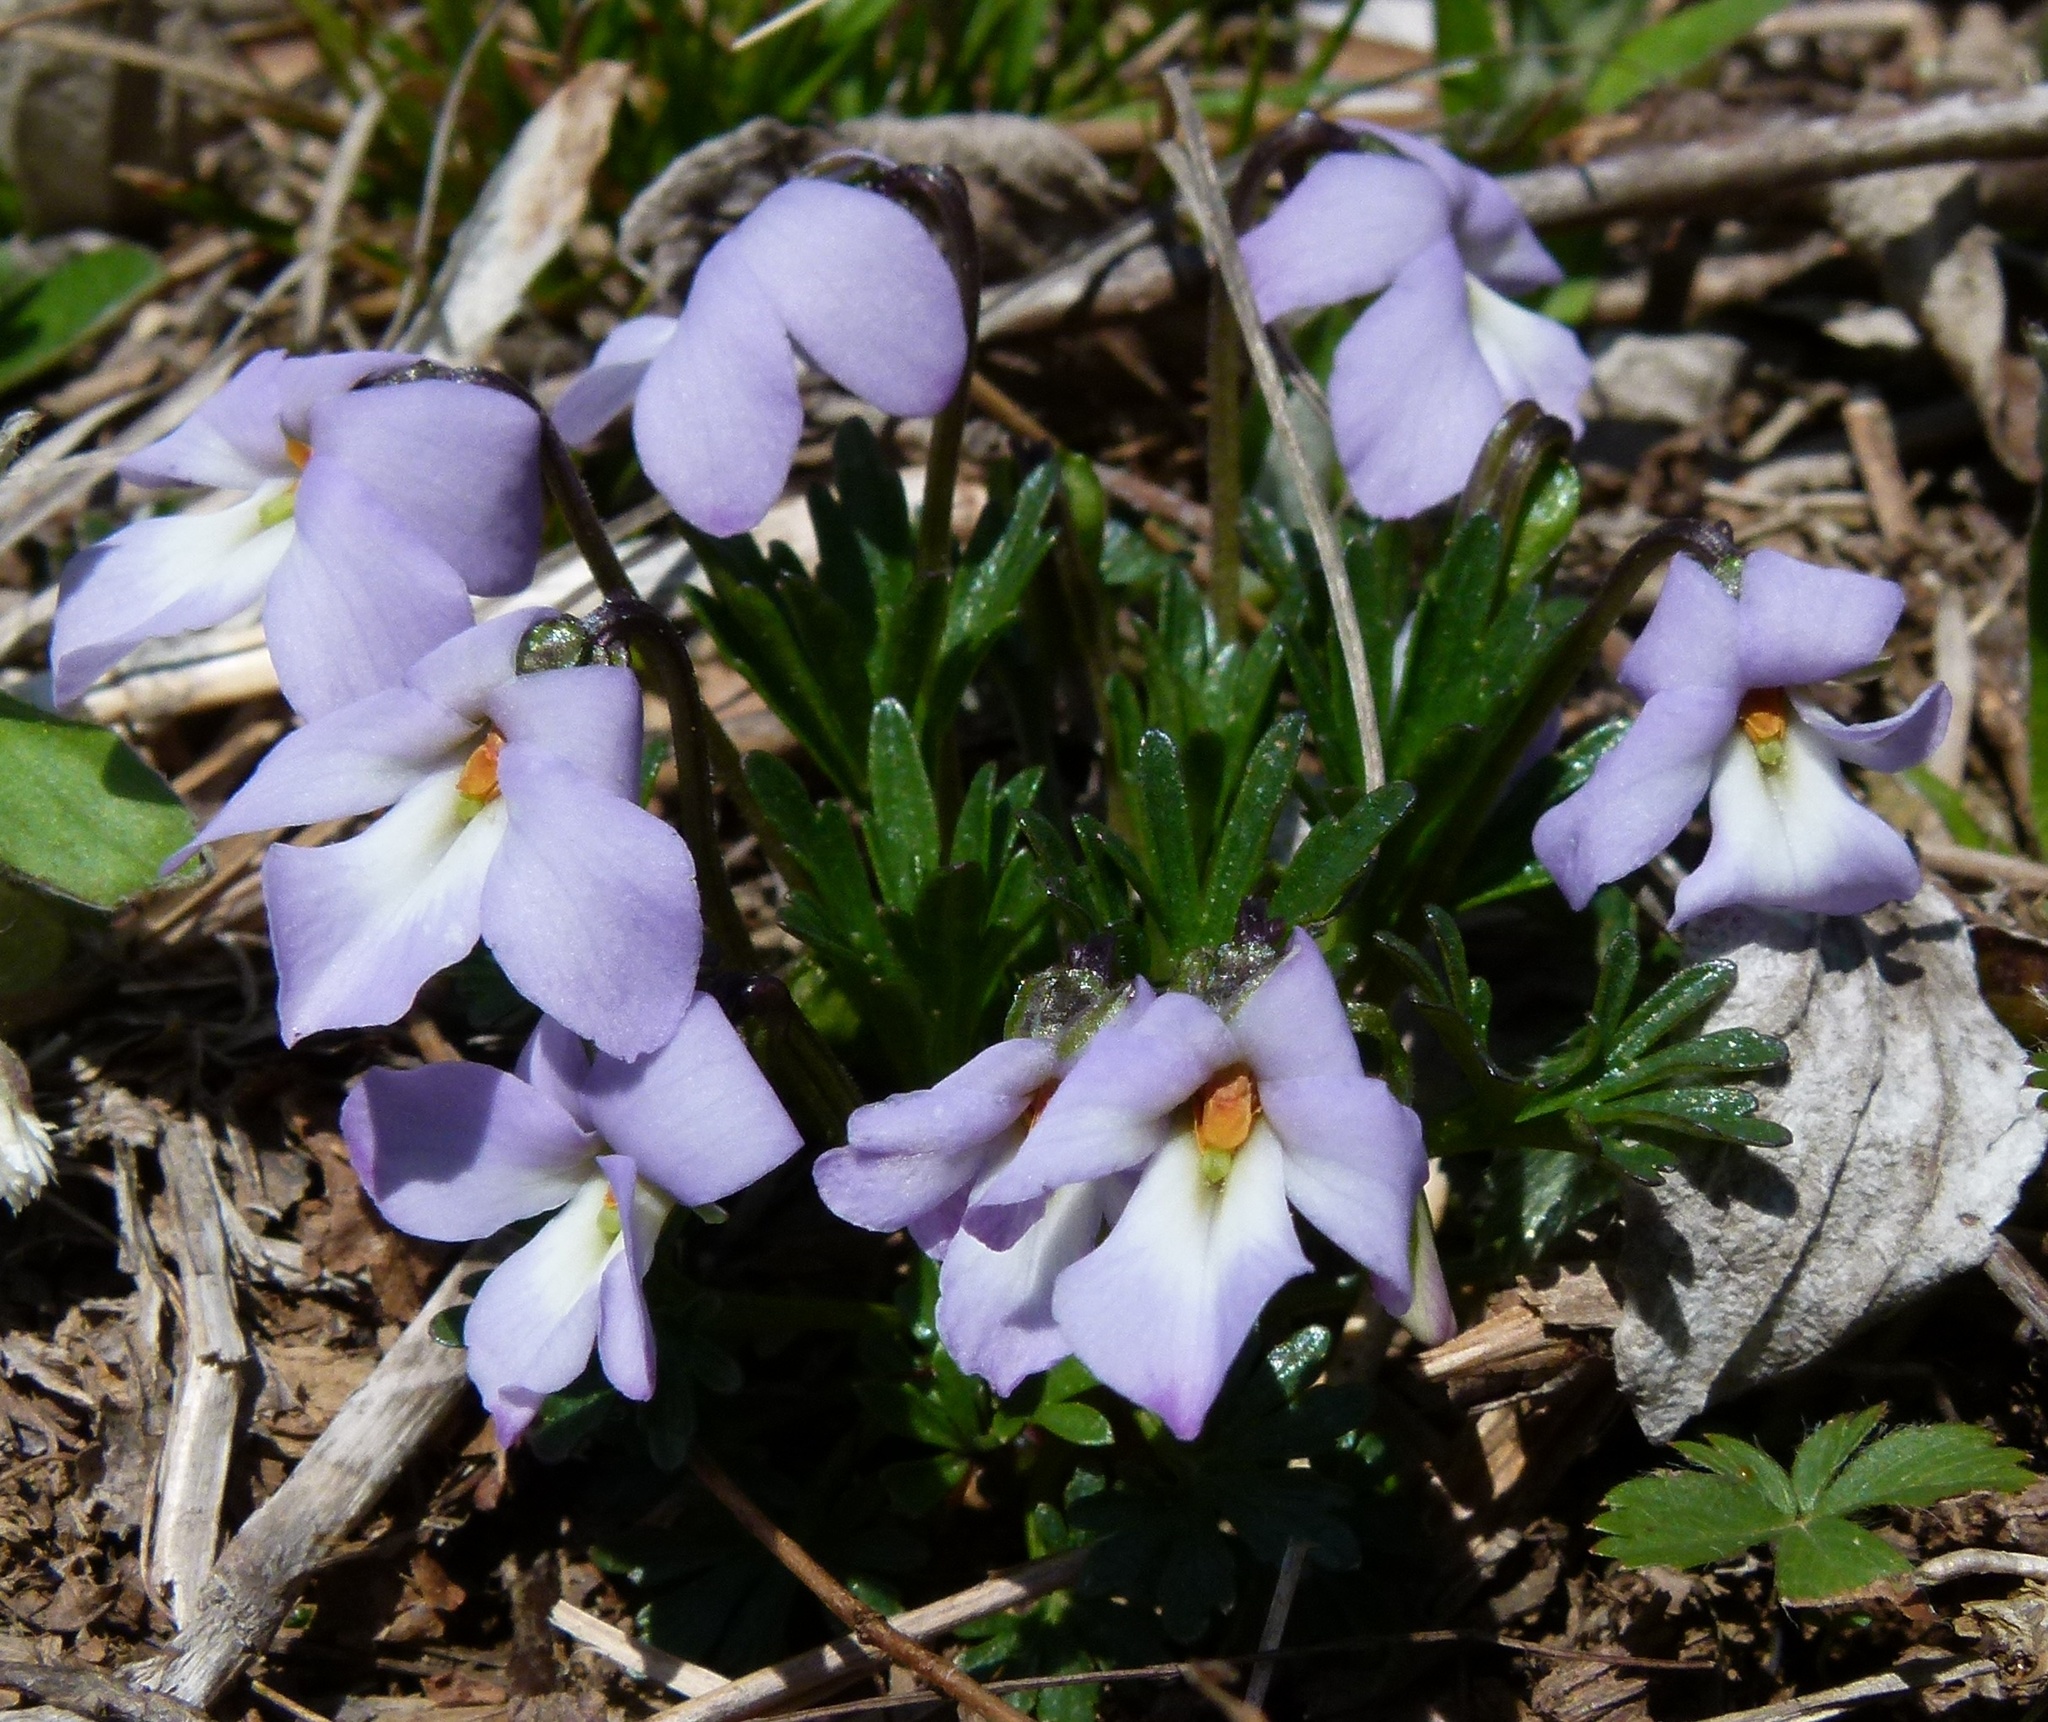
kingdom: Plantae
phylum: Tracheophyta
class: Magnoliopsida
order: Malpighiales
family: Violaceae
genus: Viola
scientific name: Viola pedata
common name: Pansy violet
